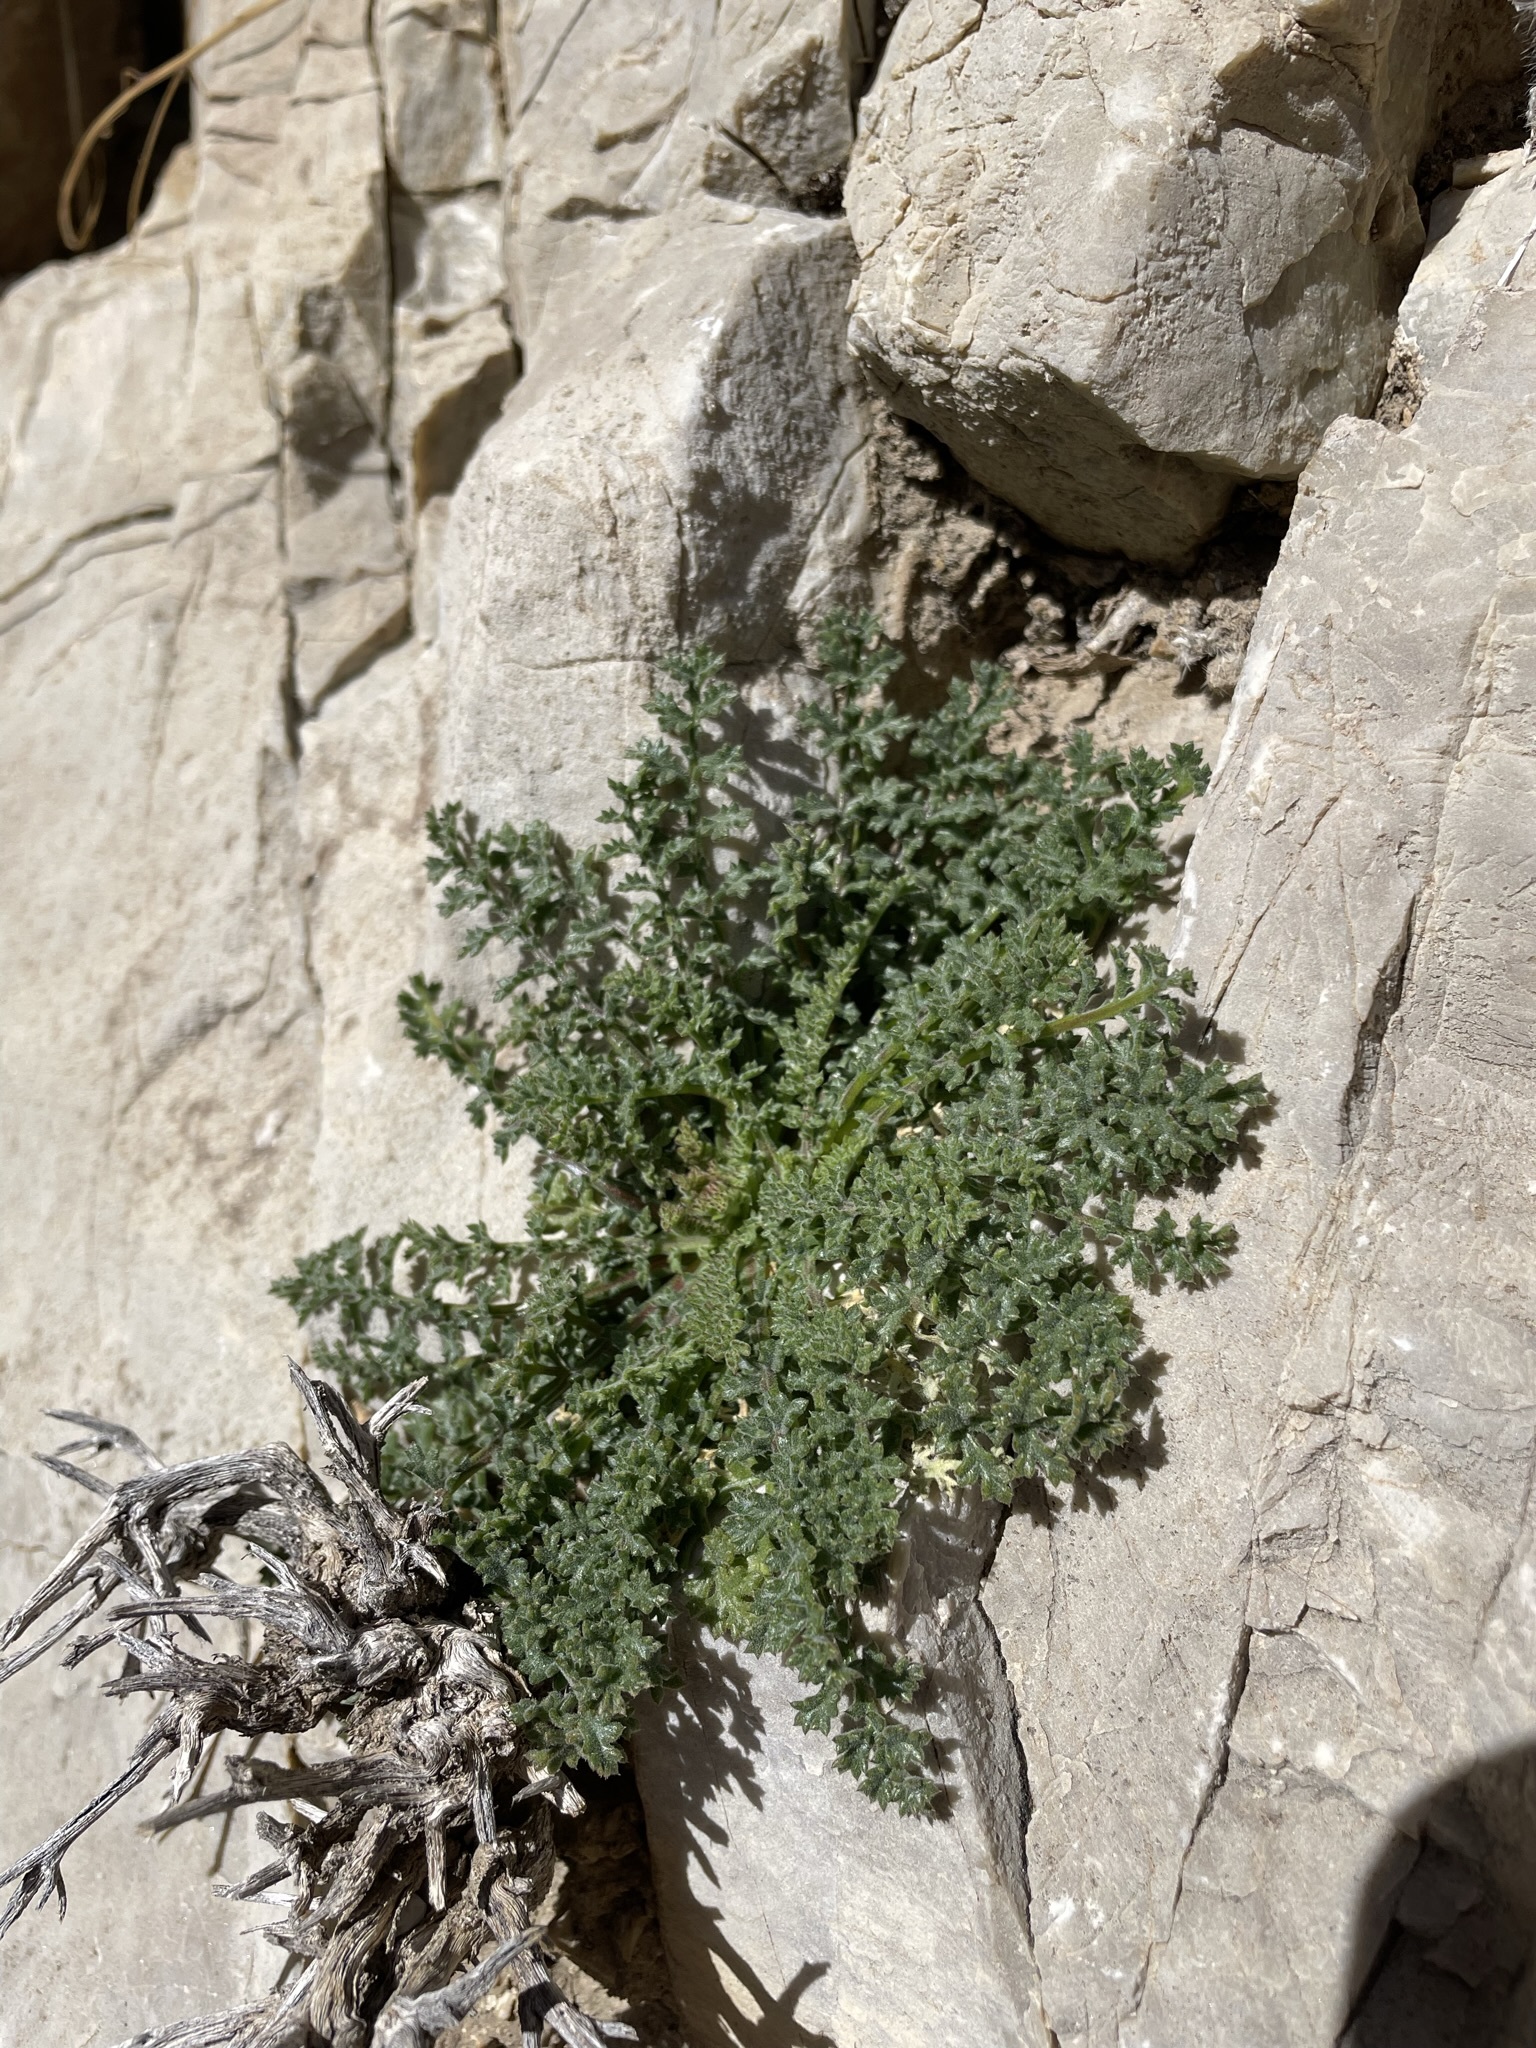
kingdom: Plantae
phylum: Tracheophyta
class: Magnoliopsida
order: Ericales
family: Polemoniaceae
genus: Gilia
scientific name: Gilia stellata
